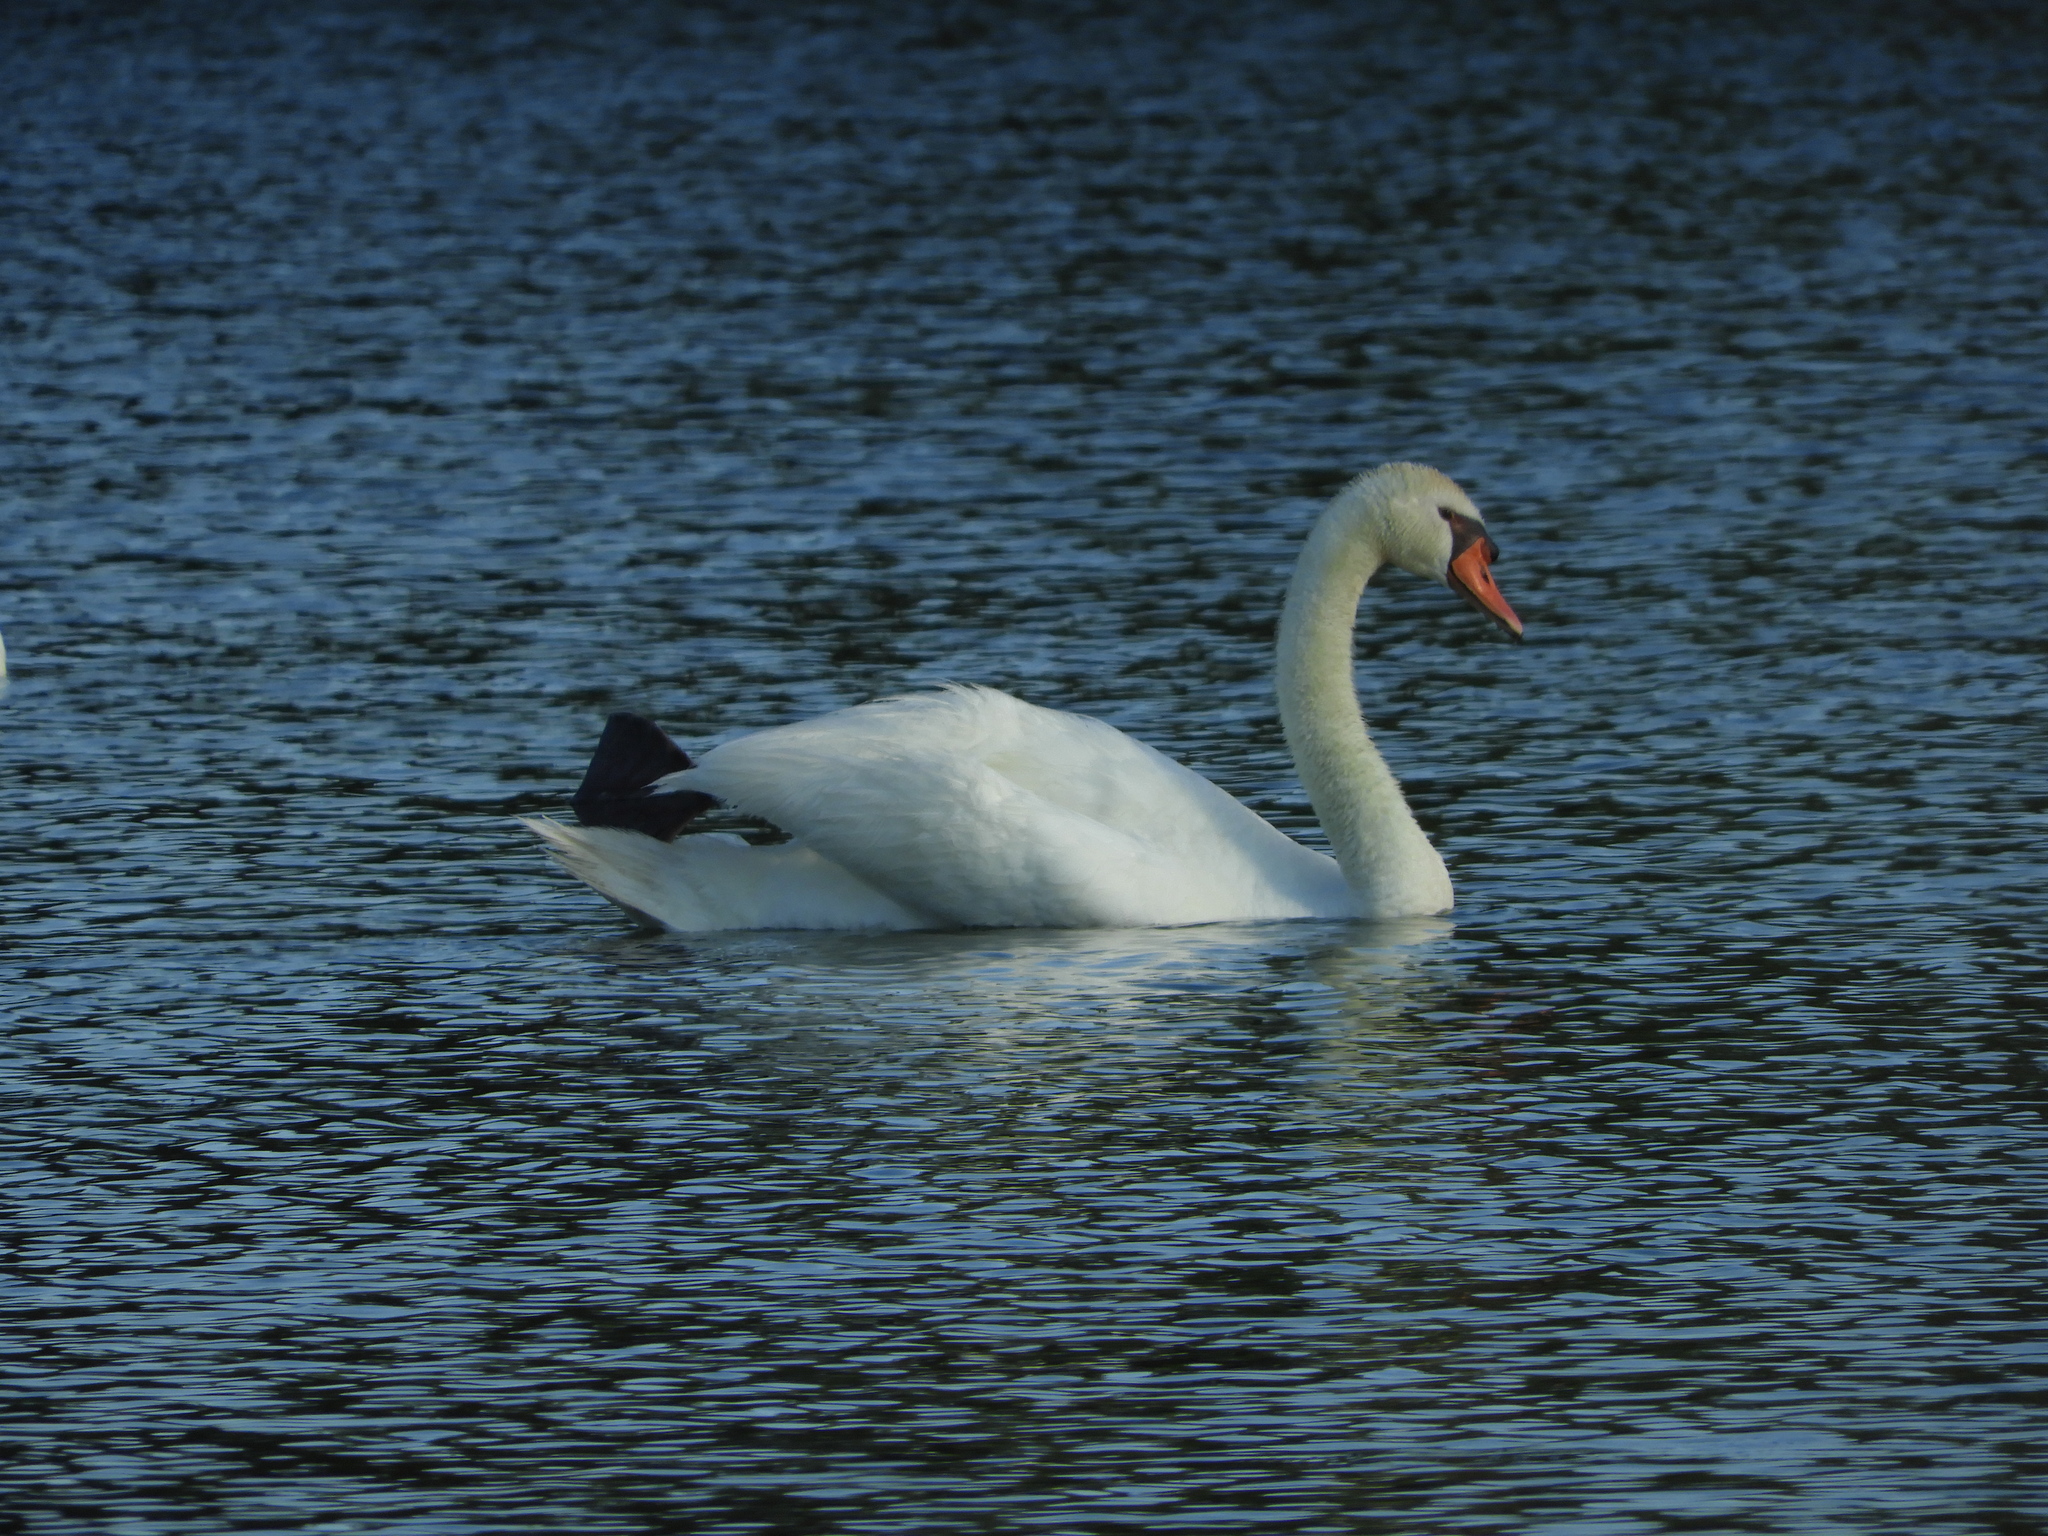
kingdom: Animalia
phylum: Chordata
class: Aves
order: Anseriformes
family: Anatidae
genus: Cygnus
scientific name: Cygnus olor
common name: Mute swan
